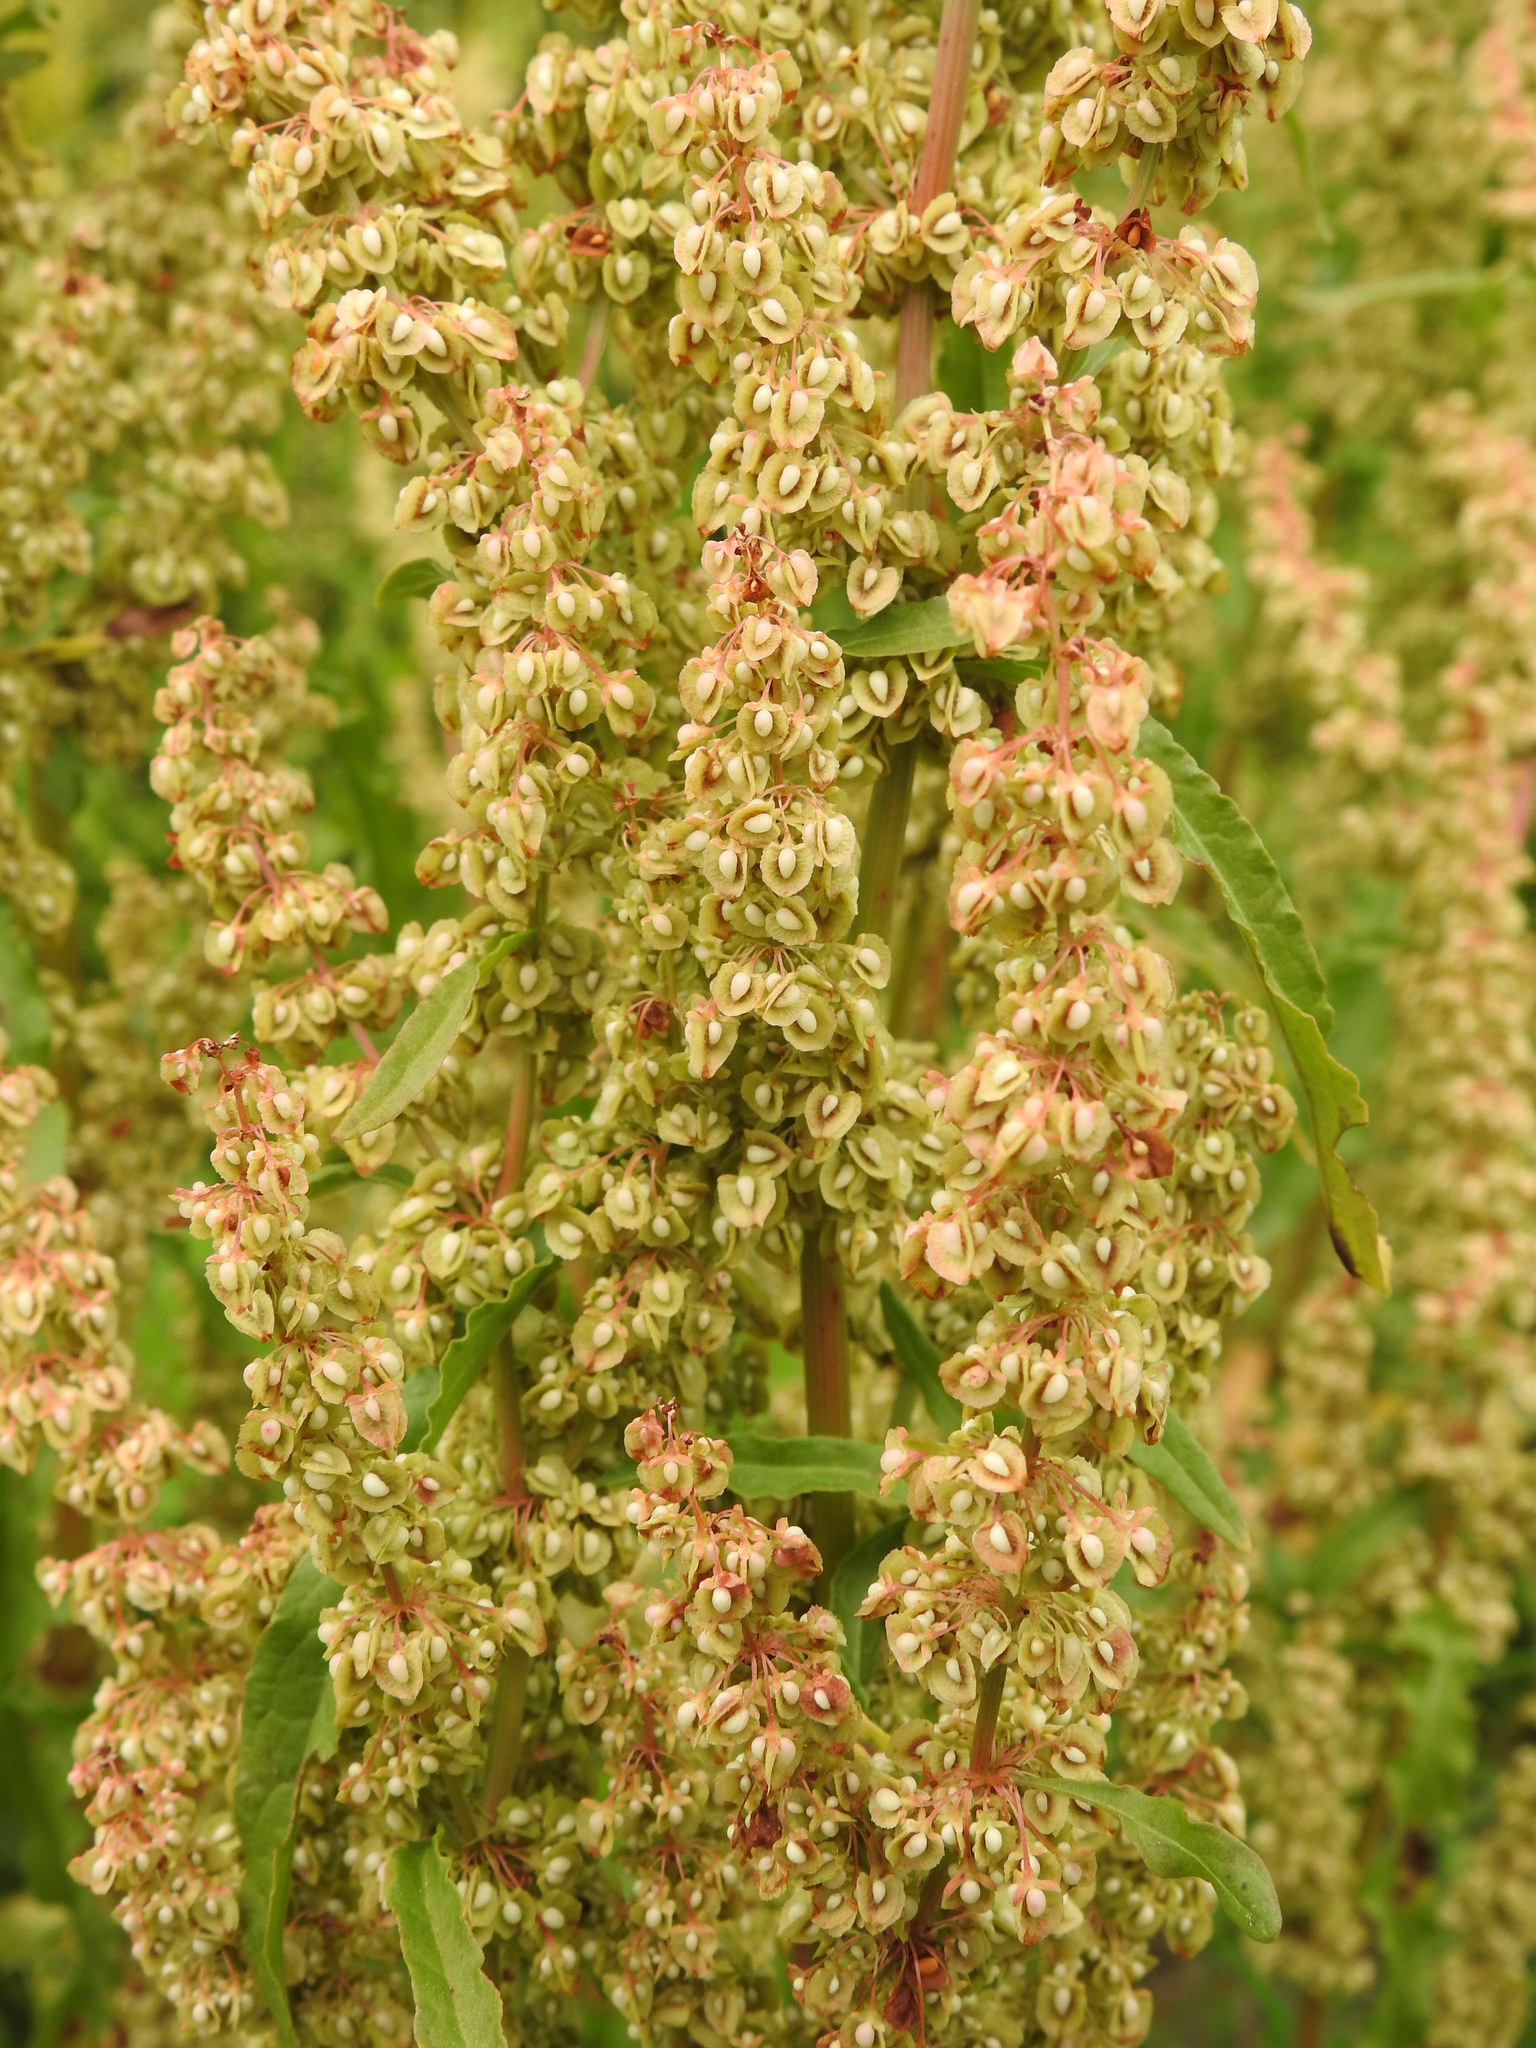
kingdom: Plantae
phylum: Tracheophyta
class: Magnoliopsida
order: Caryophyllales
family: Polygonaceae
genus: Rumex
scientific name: Rumex crispus
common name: Curled dock
